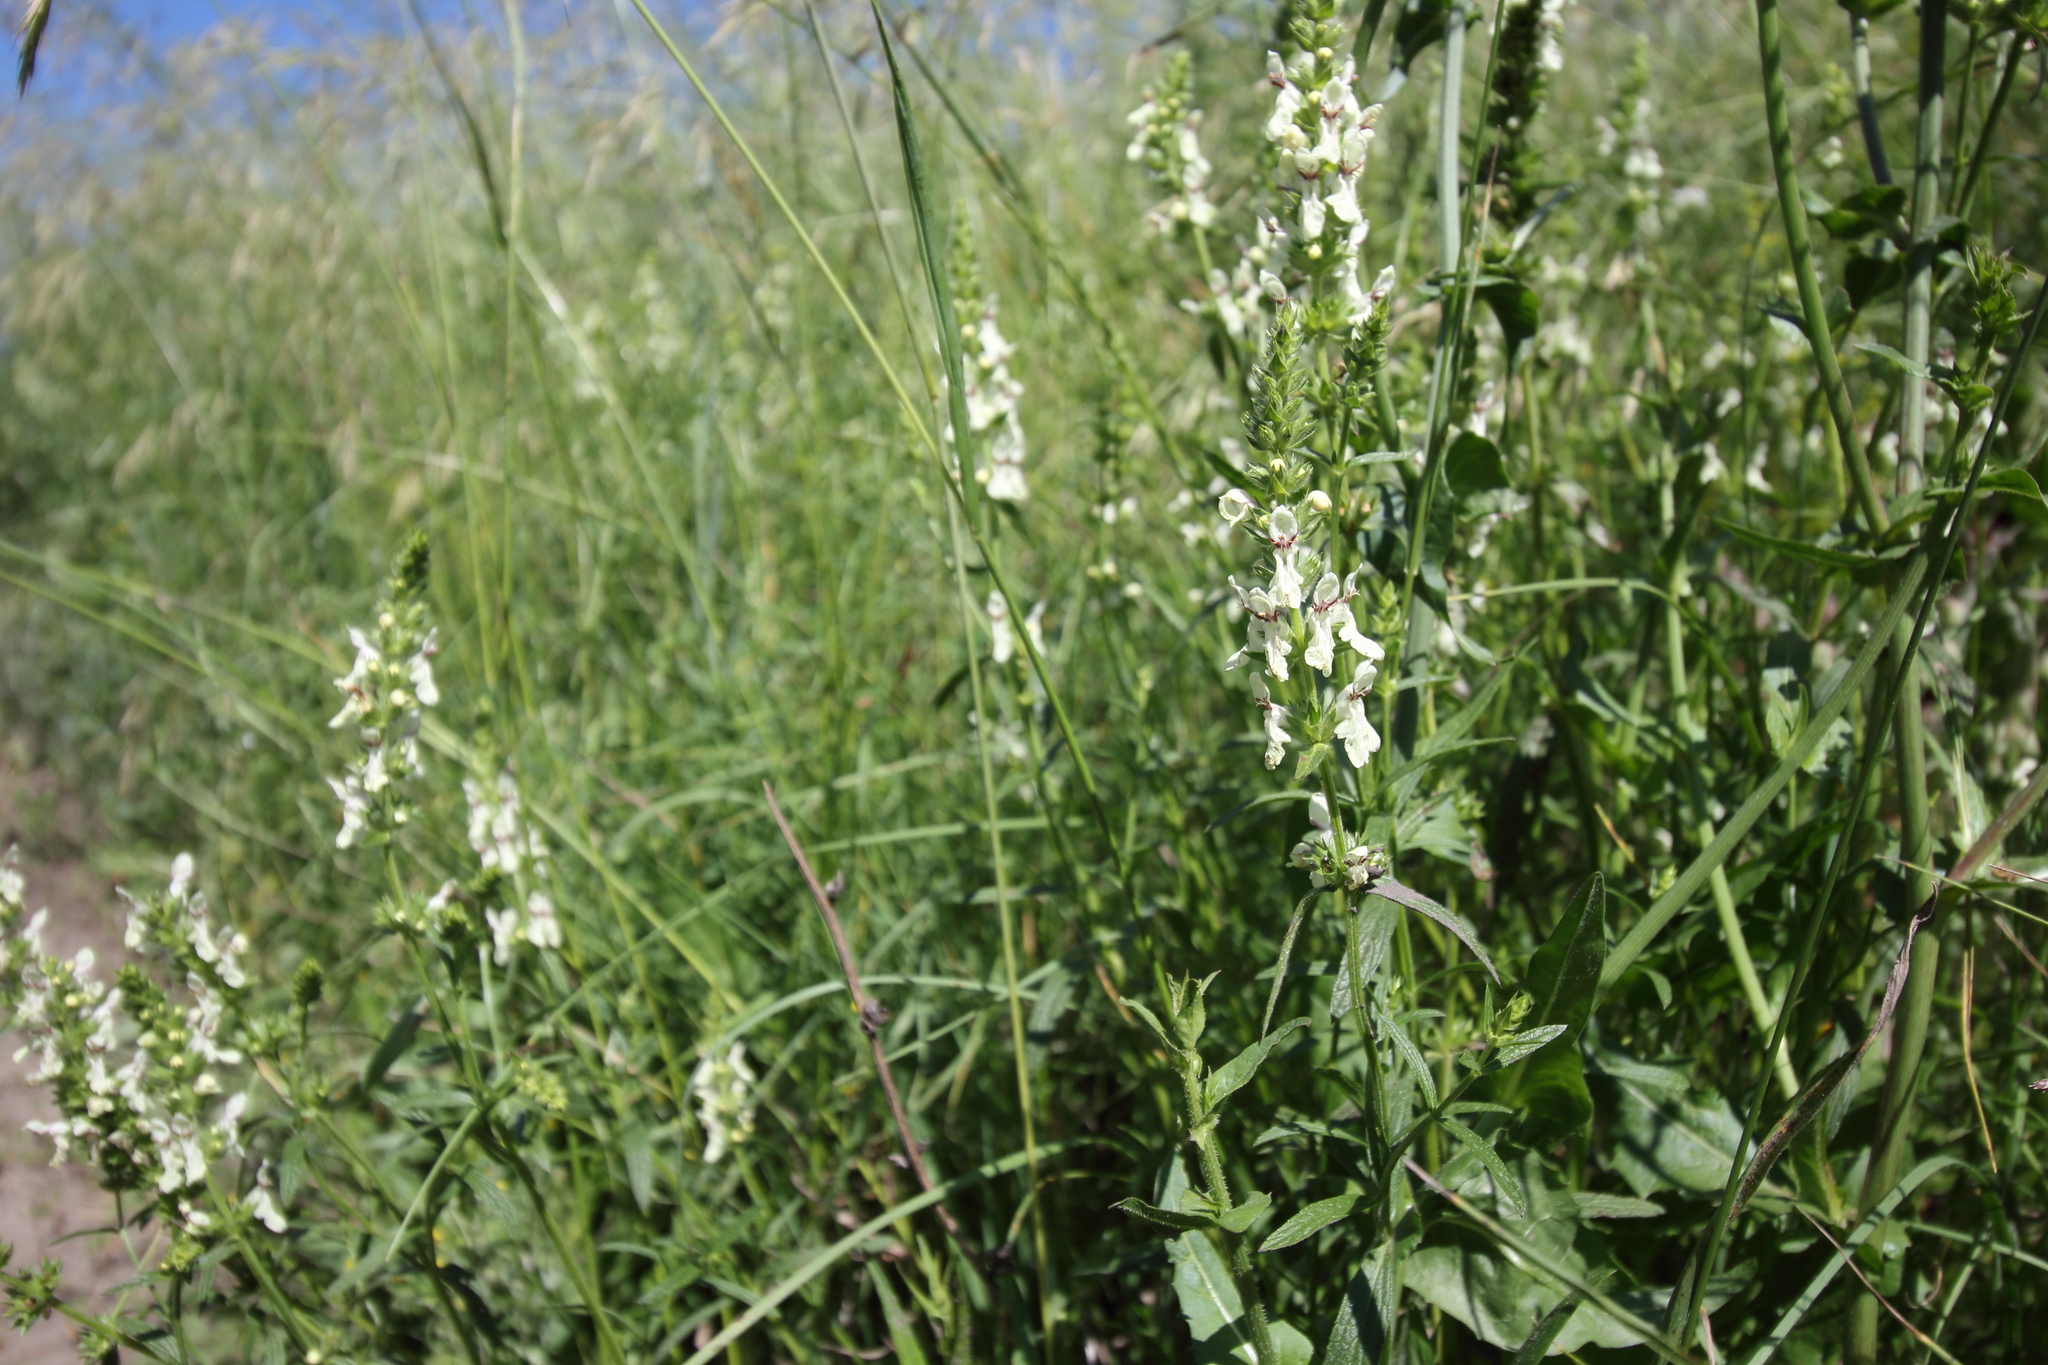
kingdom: Plantae
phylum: Tracheophyta
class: Magnoliopsida
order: Lamiales
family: Lamiaceae
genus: Stachys
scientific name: Stachys recta
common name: Perennial yellow-woundwort
